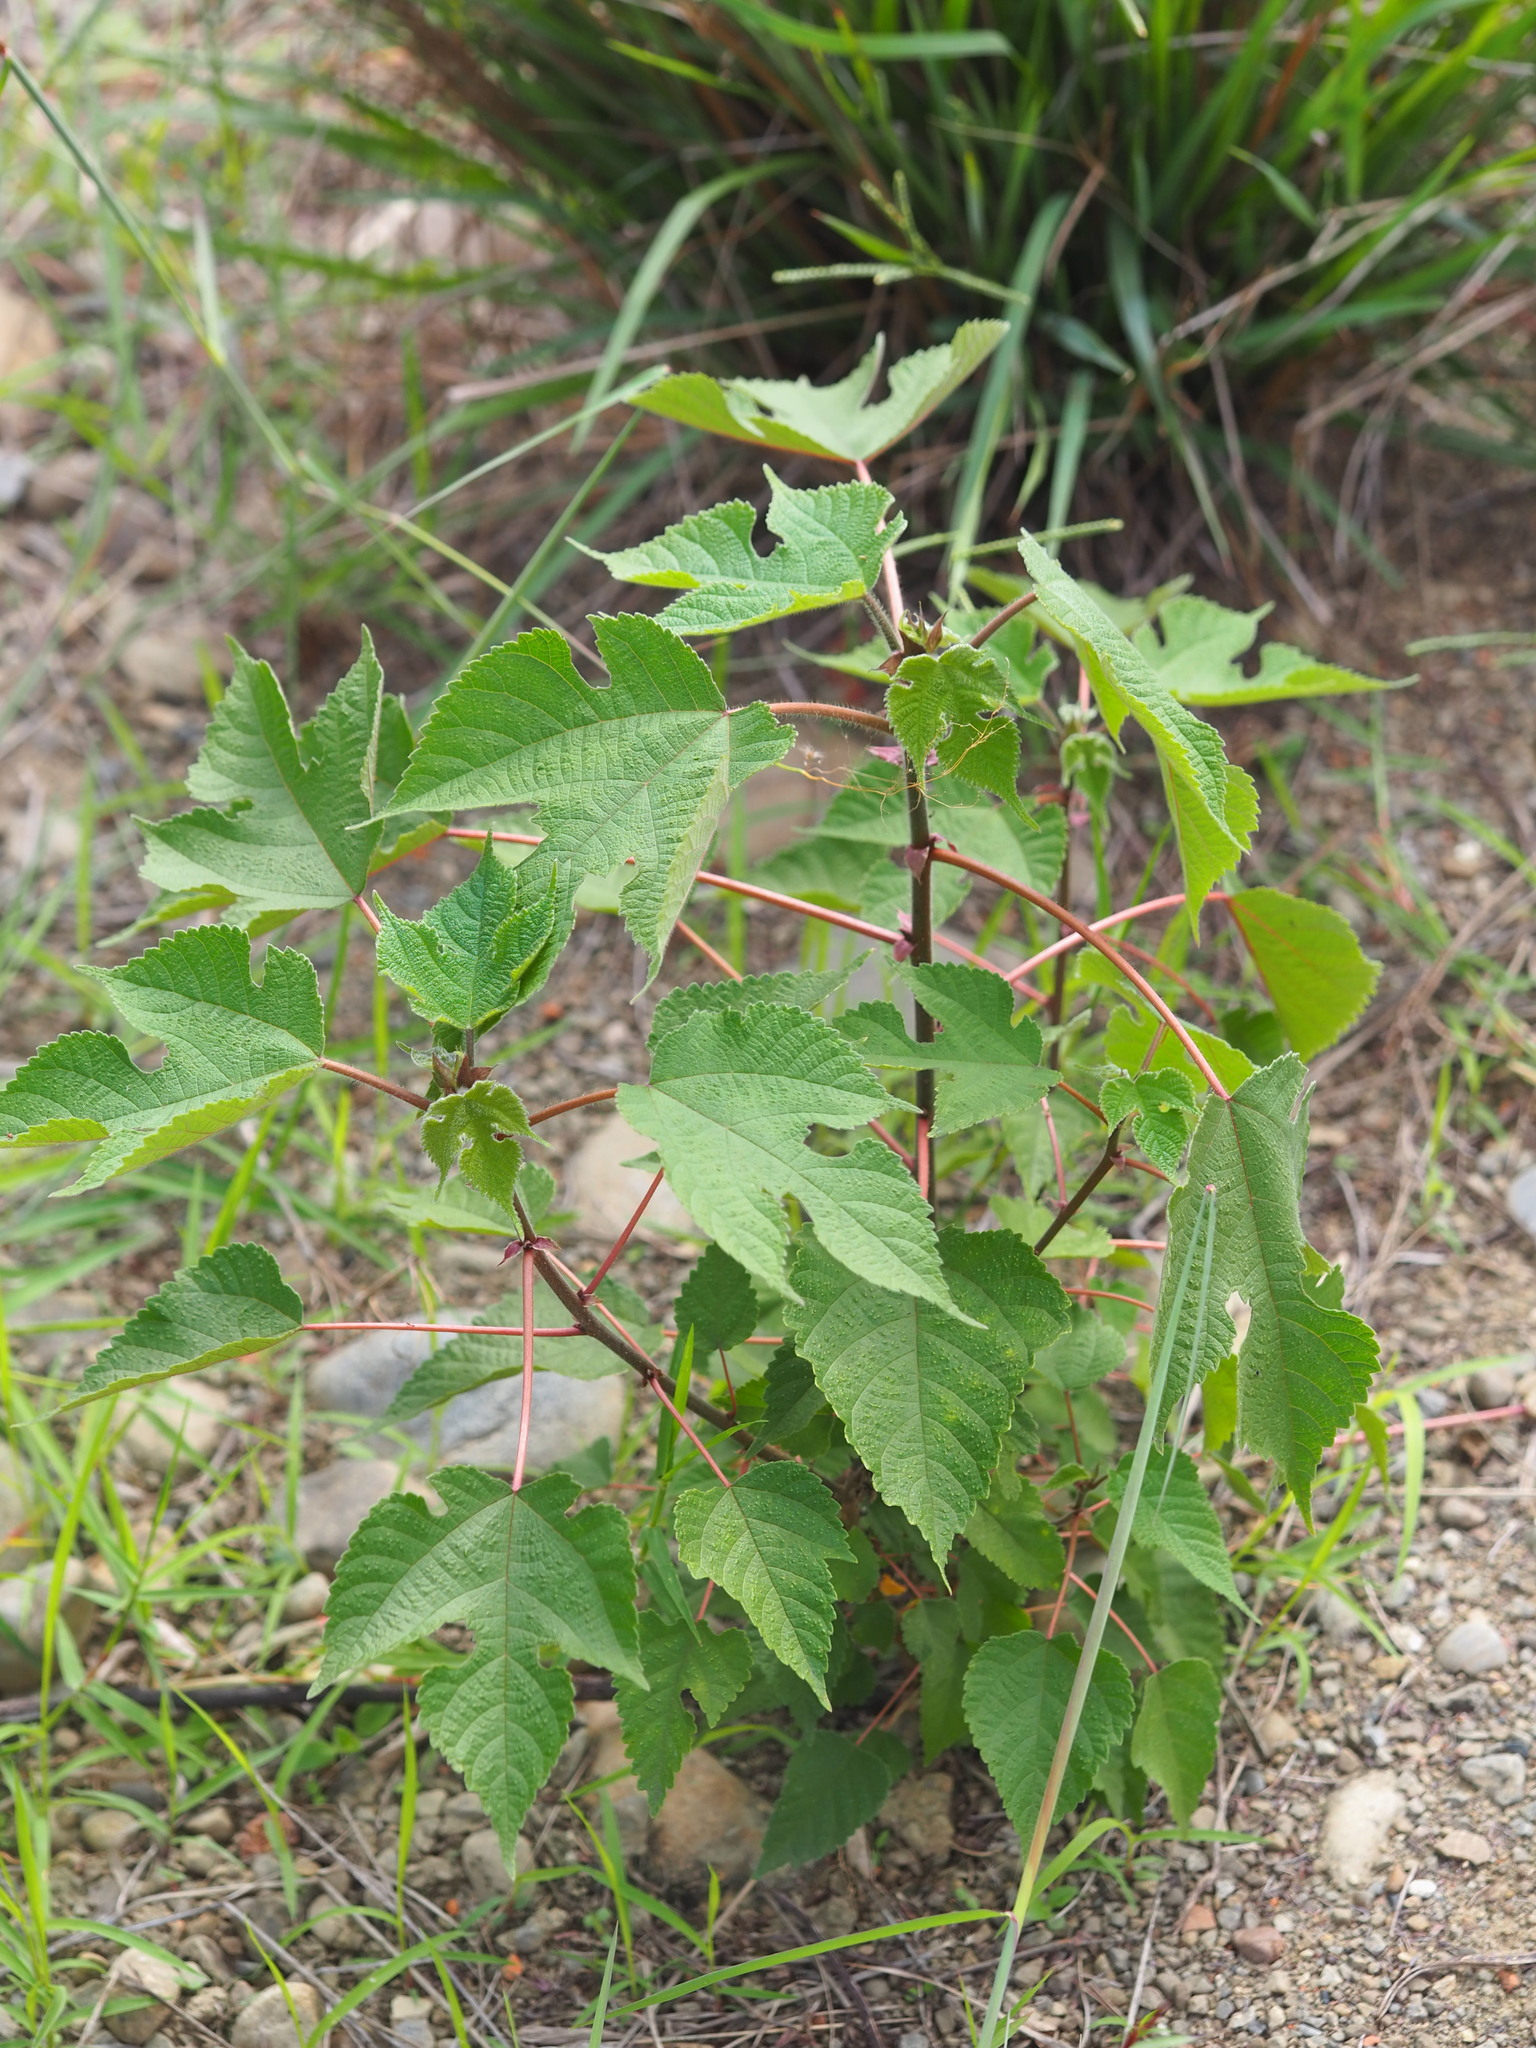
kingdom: Plantae
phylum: Tracheophyta
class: Magnoliopsida
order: Rosales
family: Moraceae
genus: Broussonetia
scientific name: Broussonetia papyrifera
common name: Paper mulberry
